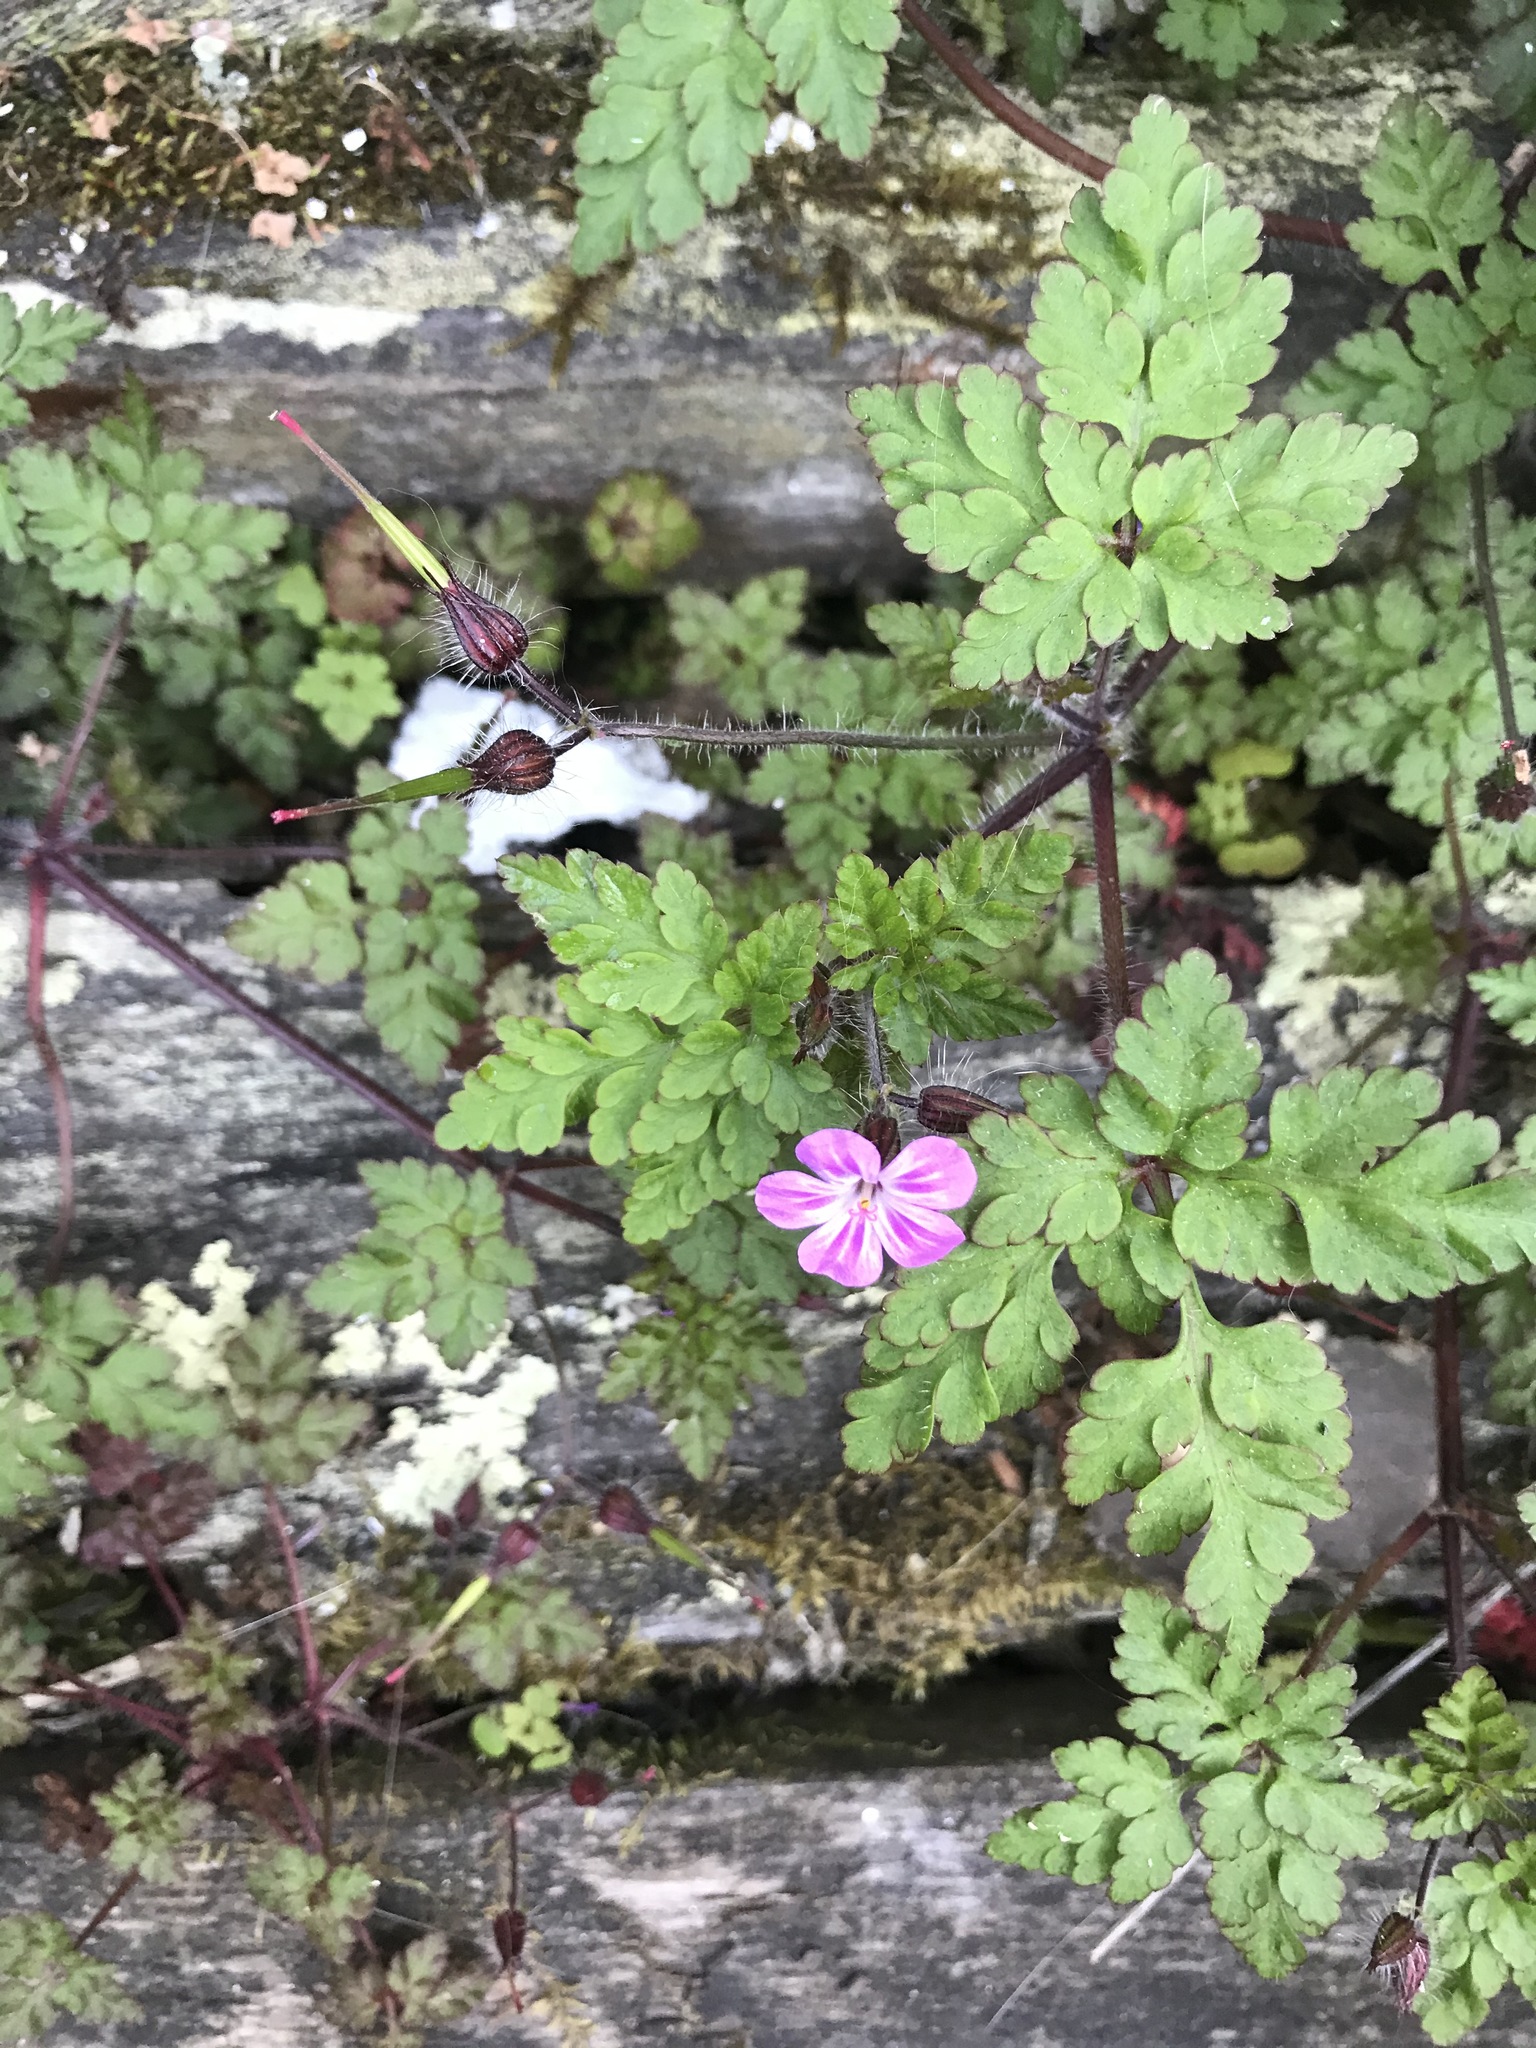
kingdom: Plantae
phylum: Tracheophyta
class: Magnoliopsida
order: Geraniales
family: Geraniaceae
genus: Geranium
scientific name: Geranium robertianum
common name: Herb-robert
